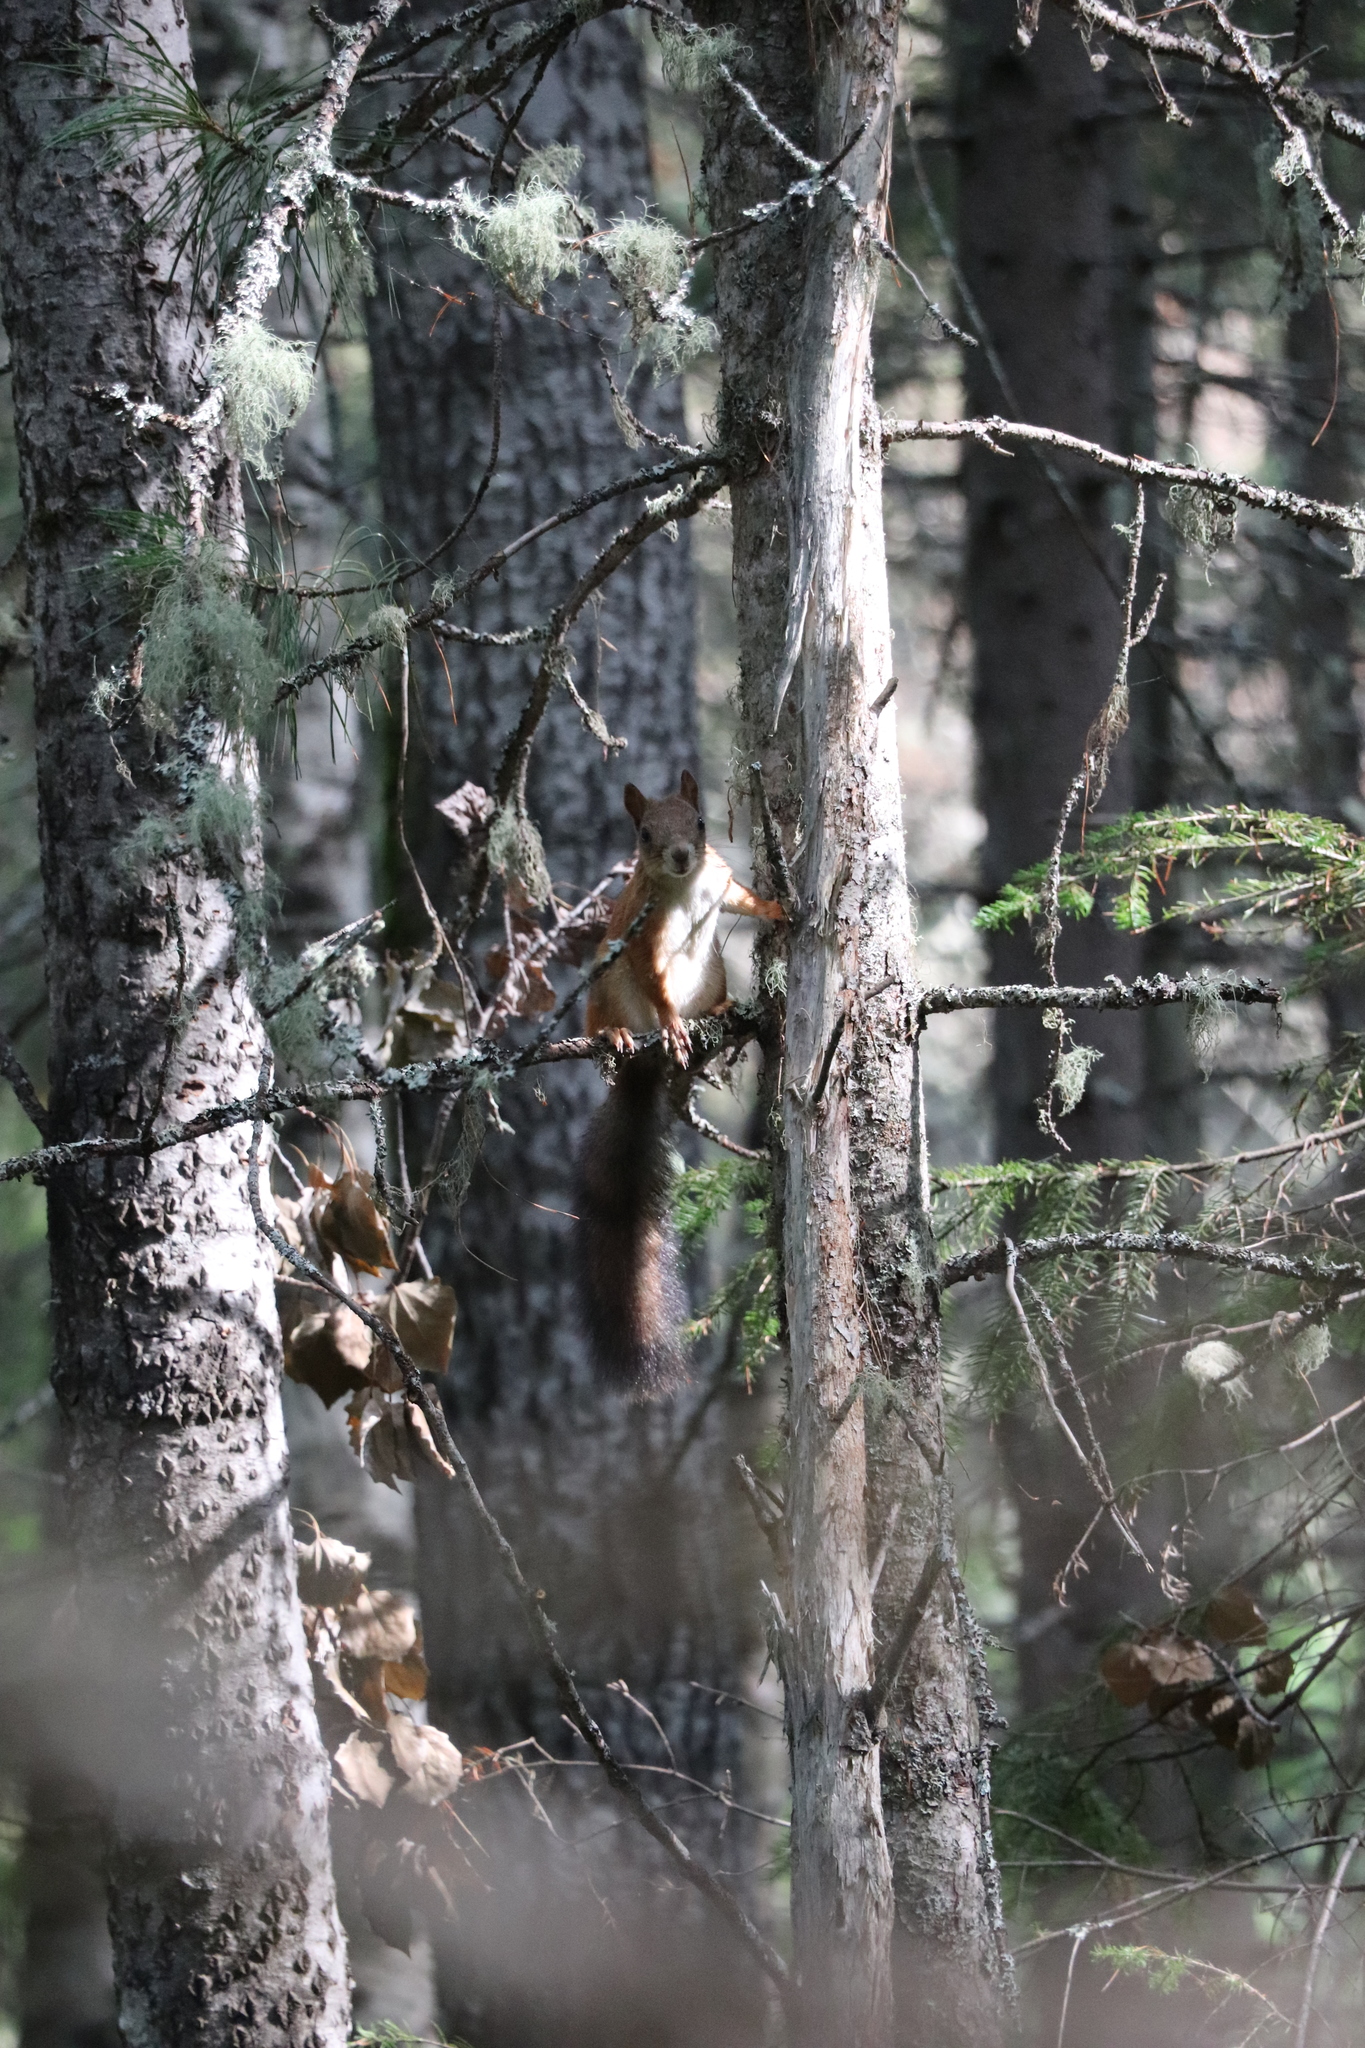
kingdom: Animalia
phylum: Chordata
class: Mammalia
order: Rodentia
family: Sciuridae
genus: Sciurus
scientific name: Sciurus vulgaris
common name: Eurasian red squirrel
